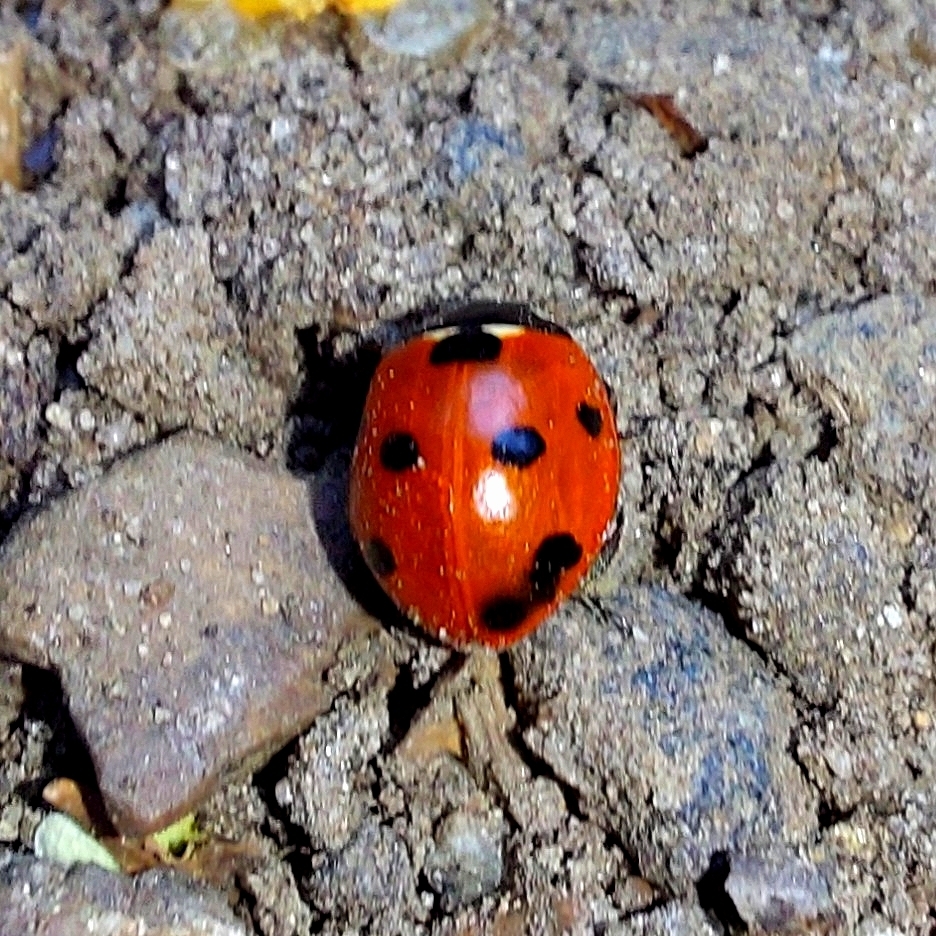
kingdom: Animalia
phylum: Arthropoda
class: Insecta
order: Coleoptera
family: Coccinellidae
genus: Coccinella
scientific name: Coccinella septempunctata
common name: Sevenspotted lady beetle
